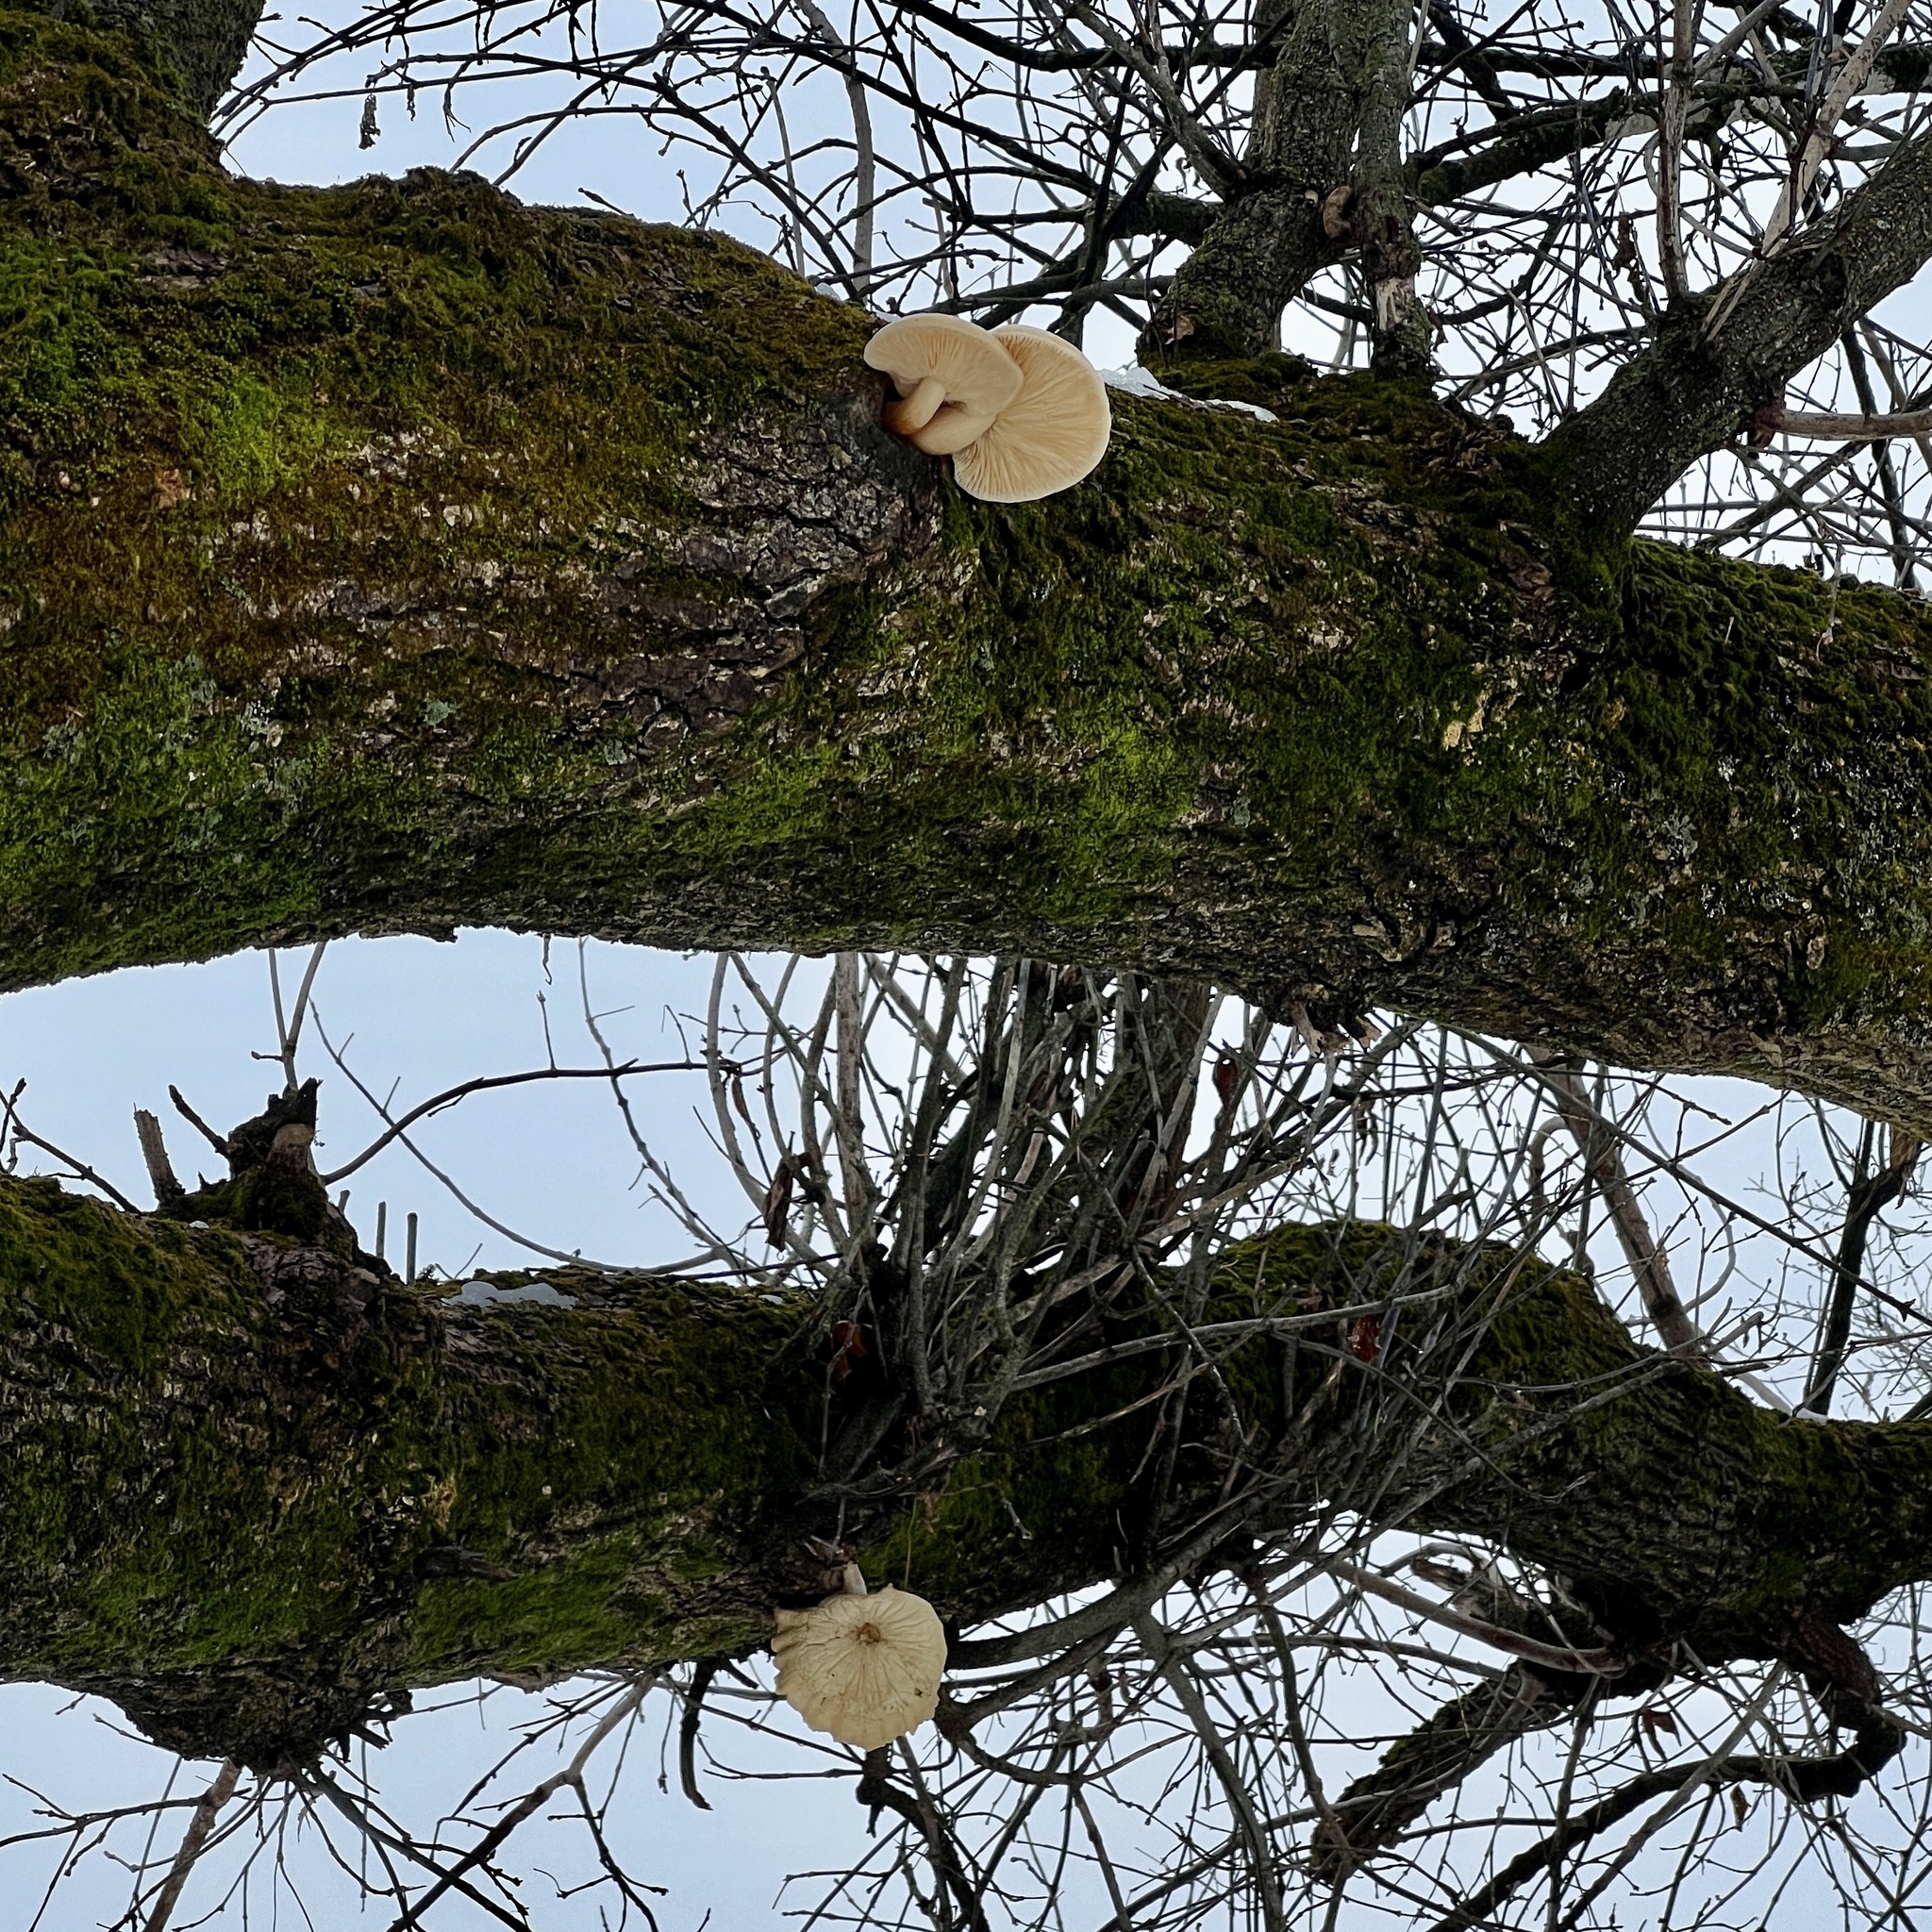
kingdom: Fungi
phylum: Basidiomycota
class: Agaricomycetes
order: Agaricales
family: Lyophyllaceae
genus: Hypsizygus
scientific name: Hypsizygus ulmarius
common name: Elm leech
